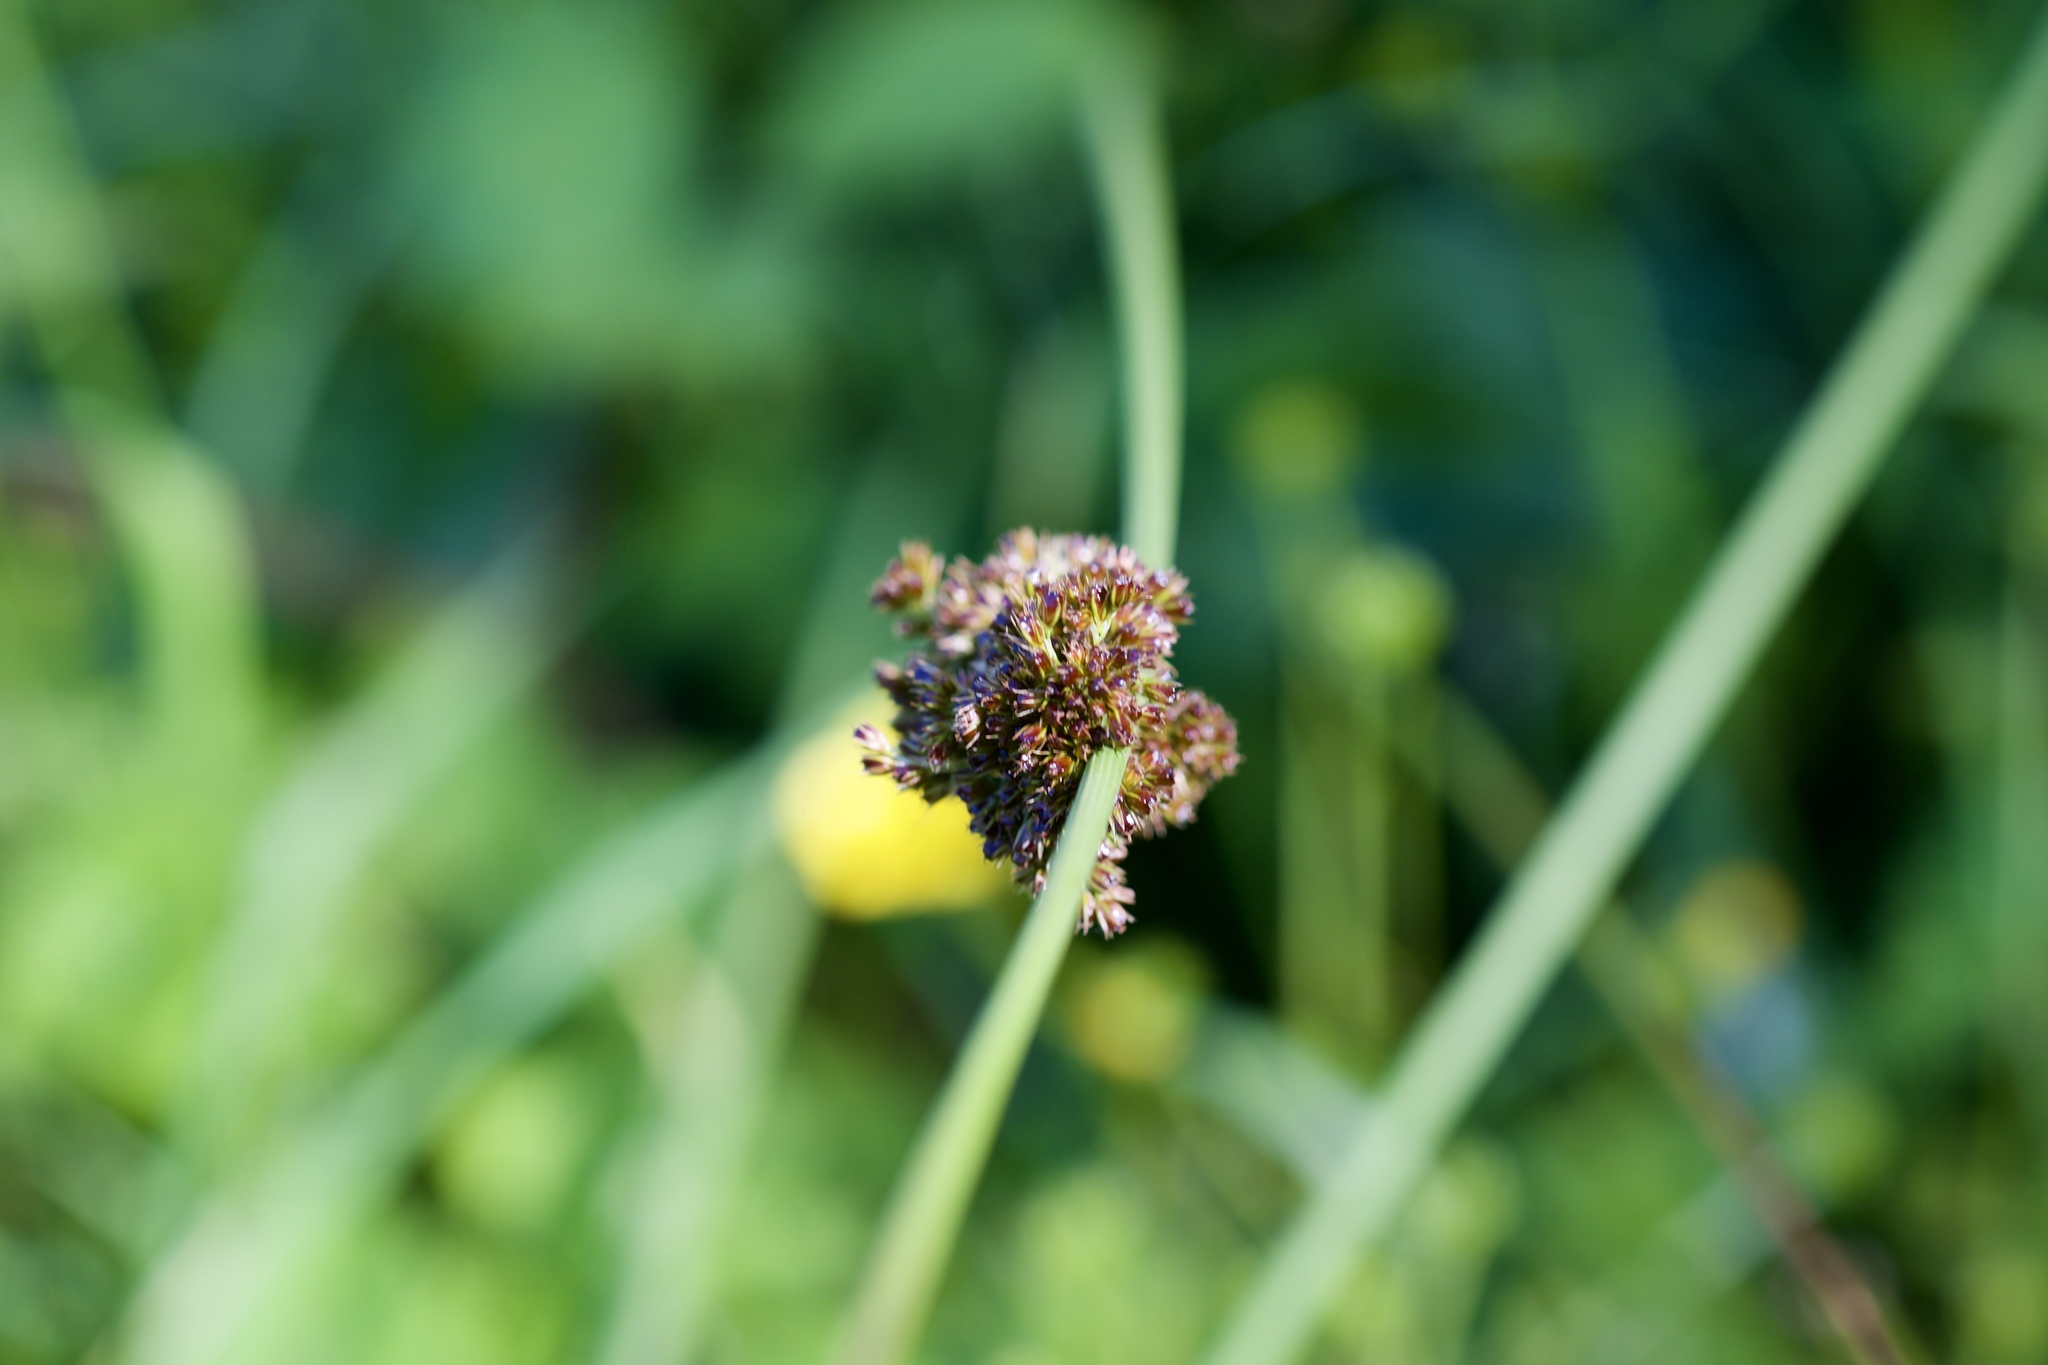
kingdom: Plantae
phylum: Tracheophyta
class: Liliopsida
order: Poales
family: Juncaceae
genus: Juncus
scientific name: Juncus effusus
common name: Soft rush
